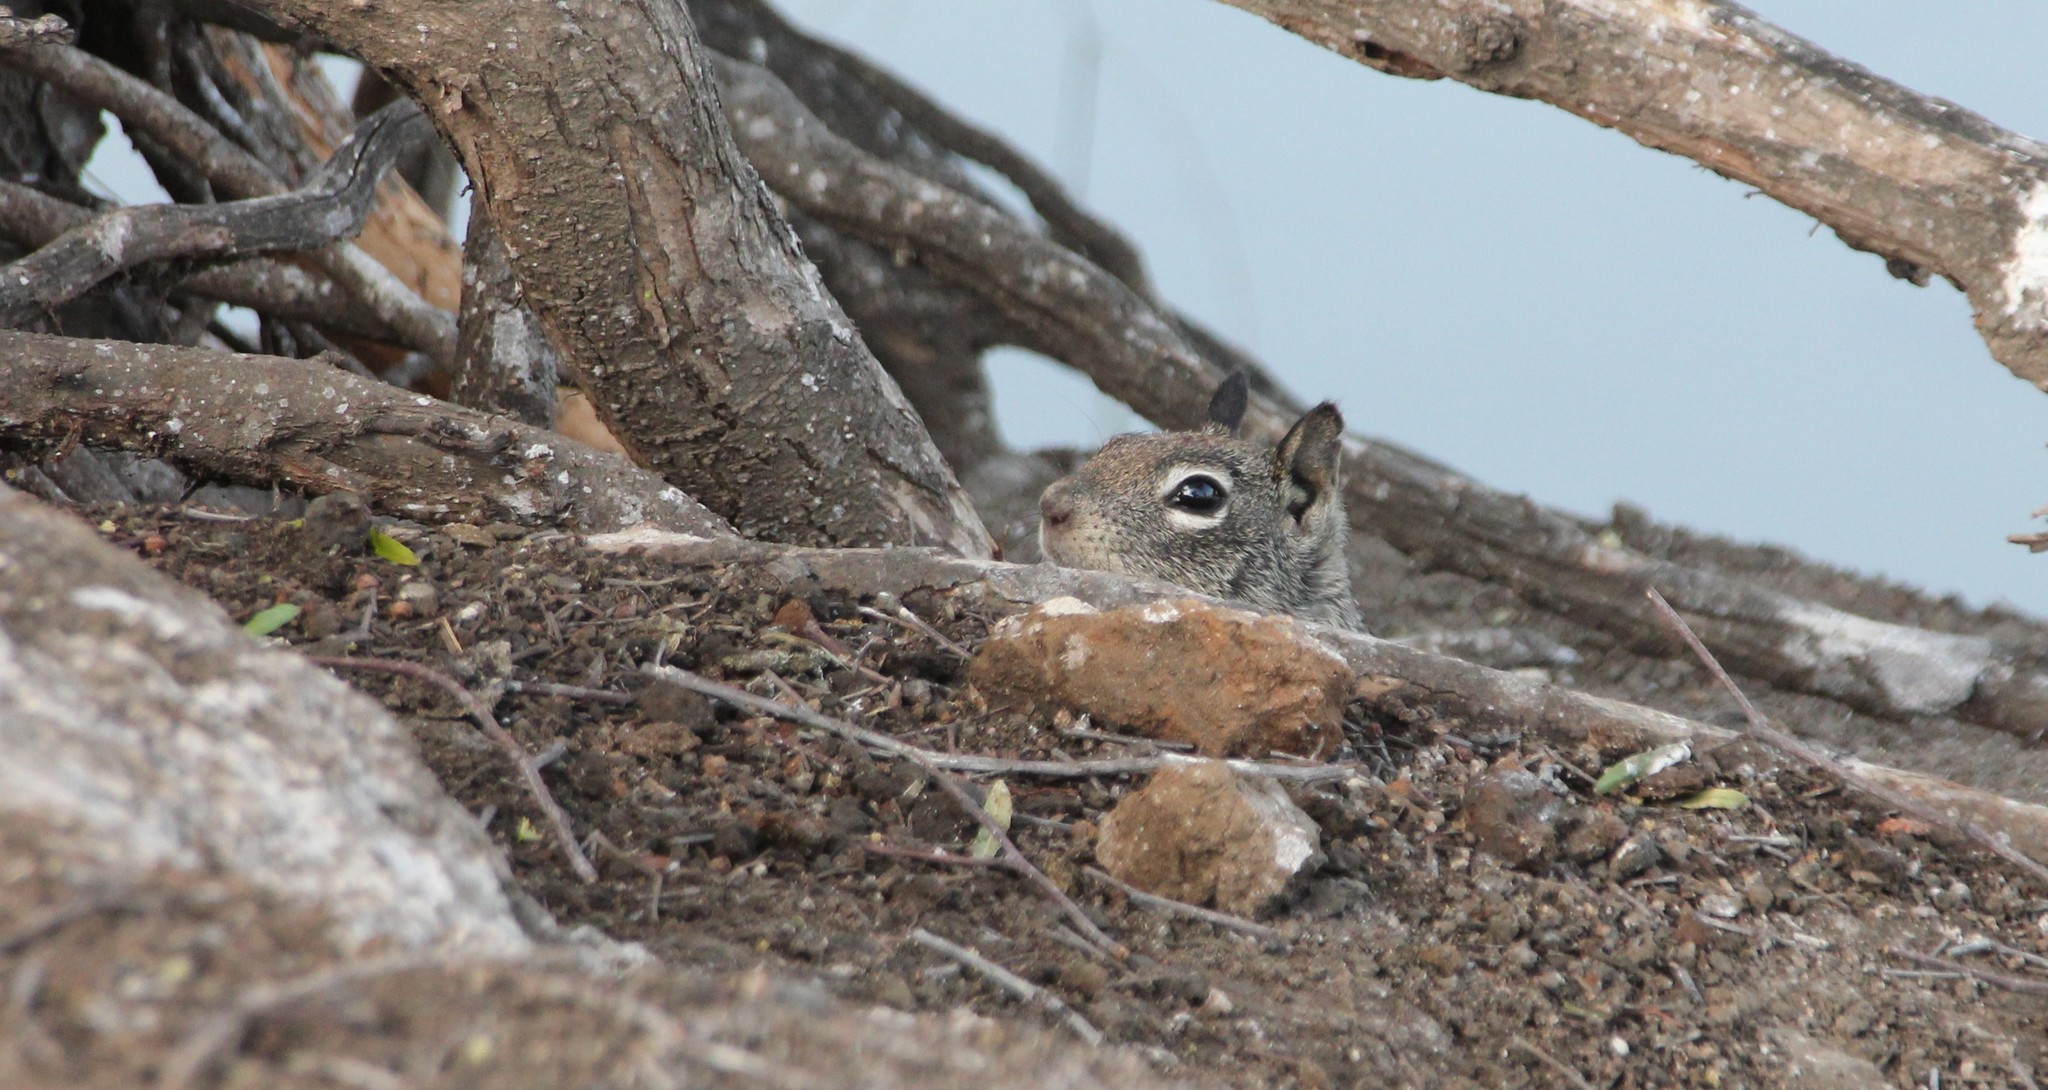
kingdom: Animalia
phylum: Chordata
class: Mammalia
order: Rodentia
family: Sciuridae
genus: Otospermophilus
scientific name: Otospermophilus beecheyi
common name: California ground squirrel
